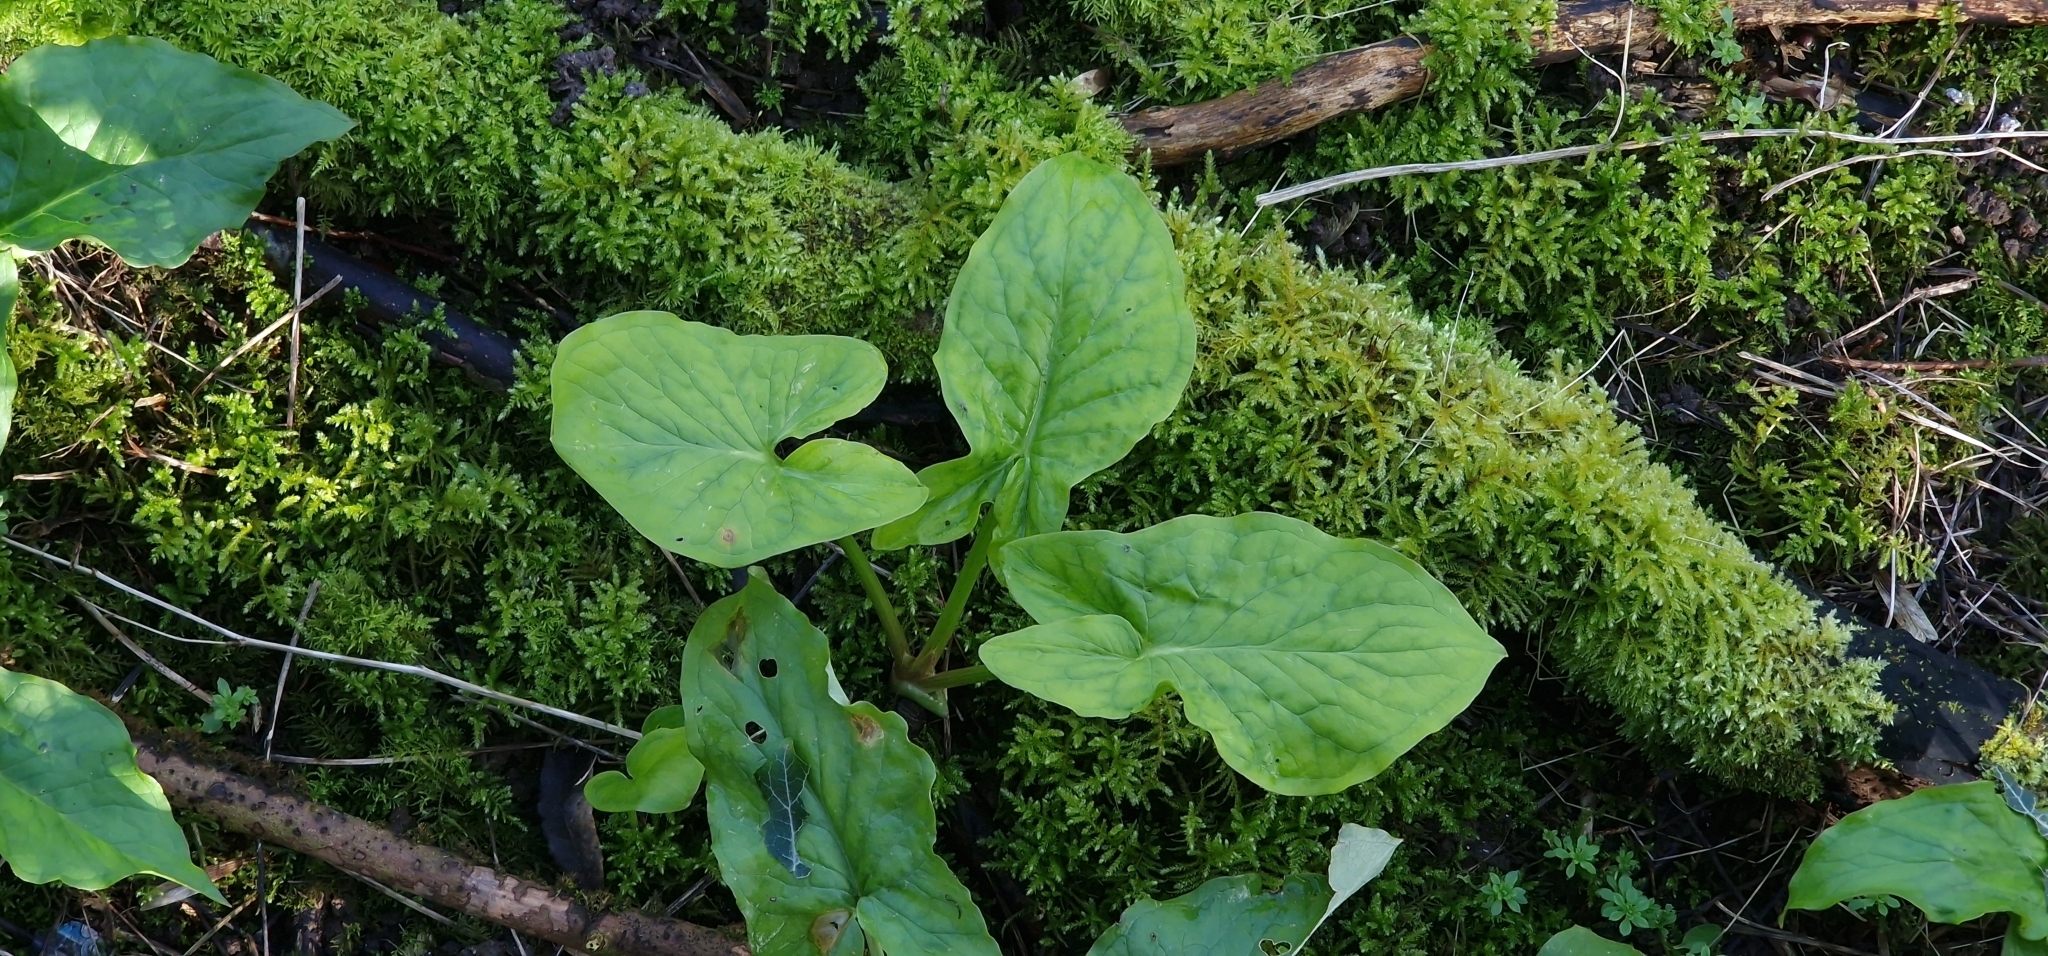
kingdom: Plantae
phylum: Tracheophyta
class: Liliopsida
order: Alismatales
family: Araceae
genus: Arum
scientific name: Arum maculatum
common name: Lords-and-ladies
